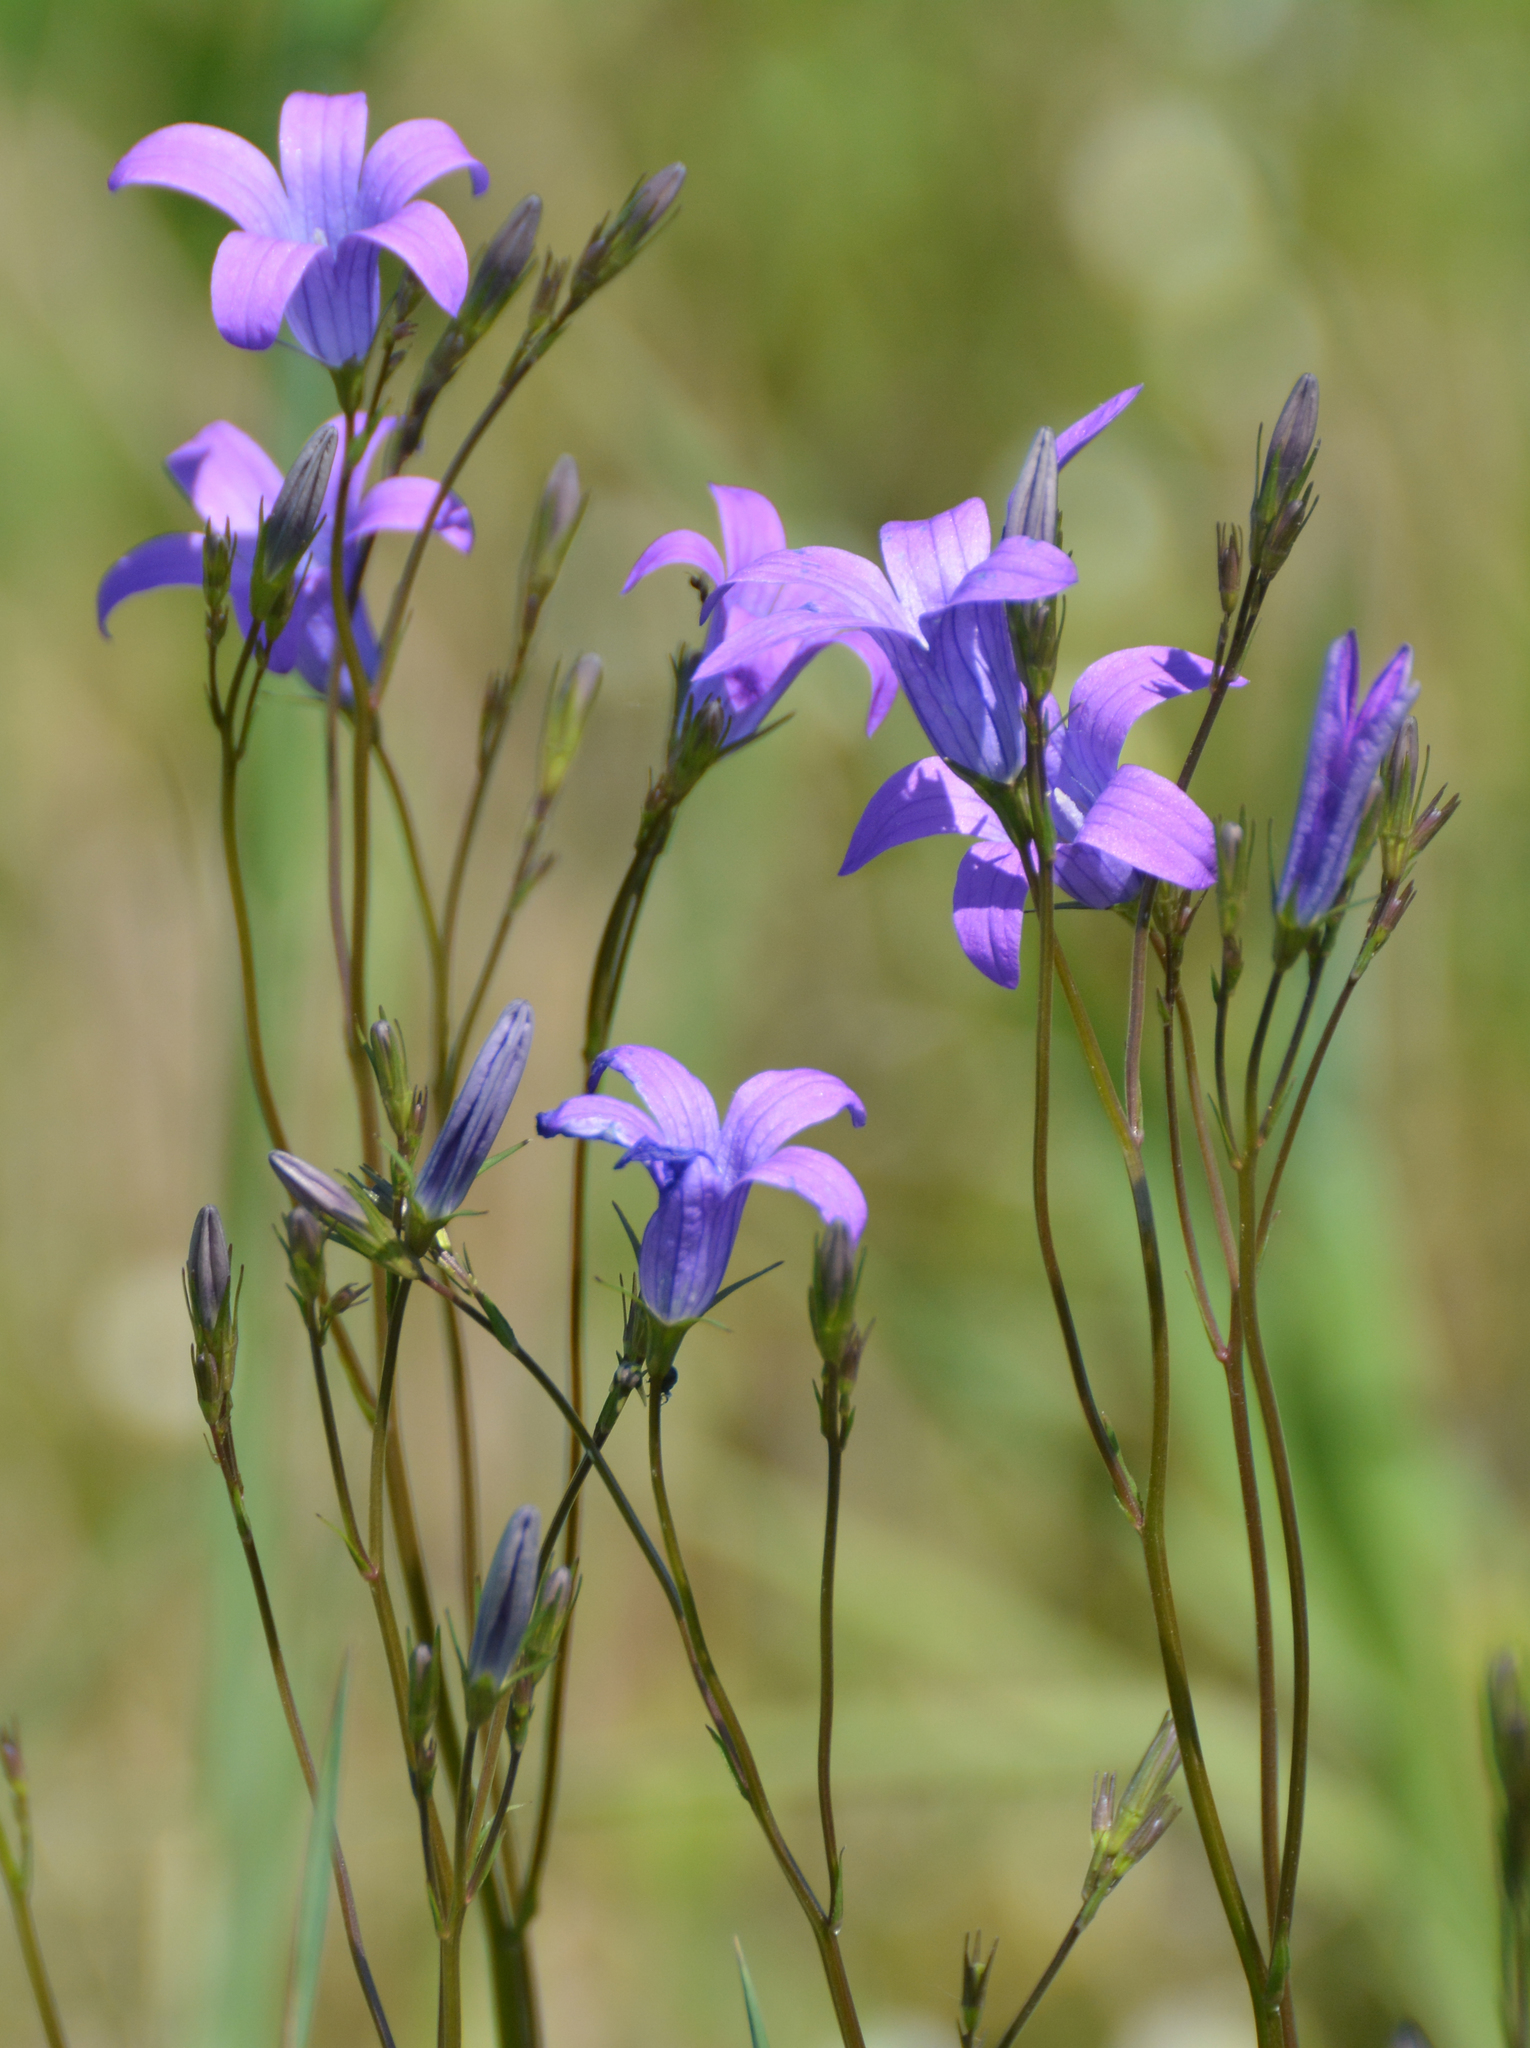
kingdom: Plantae
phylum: Tracheophyta
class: Magnoliopsida
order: Asterales
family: Campanulaceae
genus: Campanula
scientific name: Campanula patula
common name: Spreading bellflower
